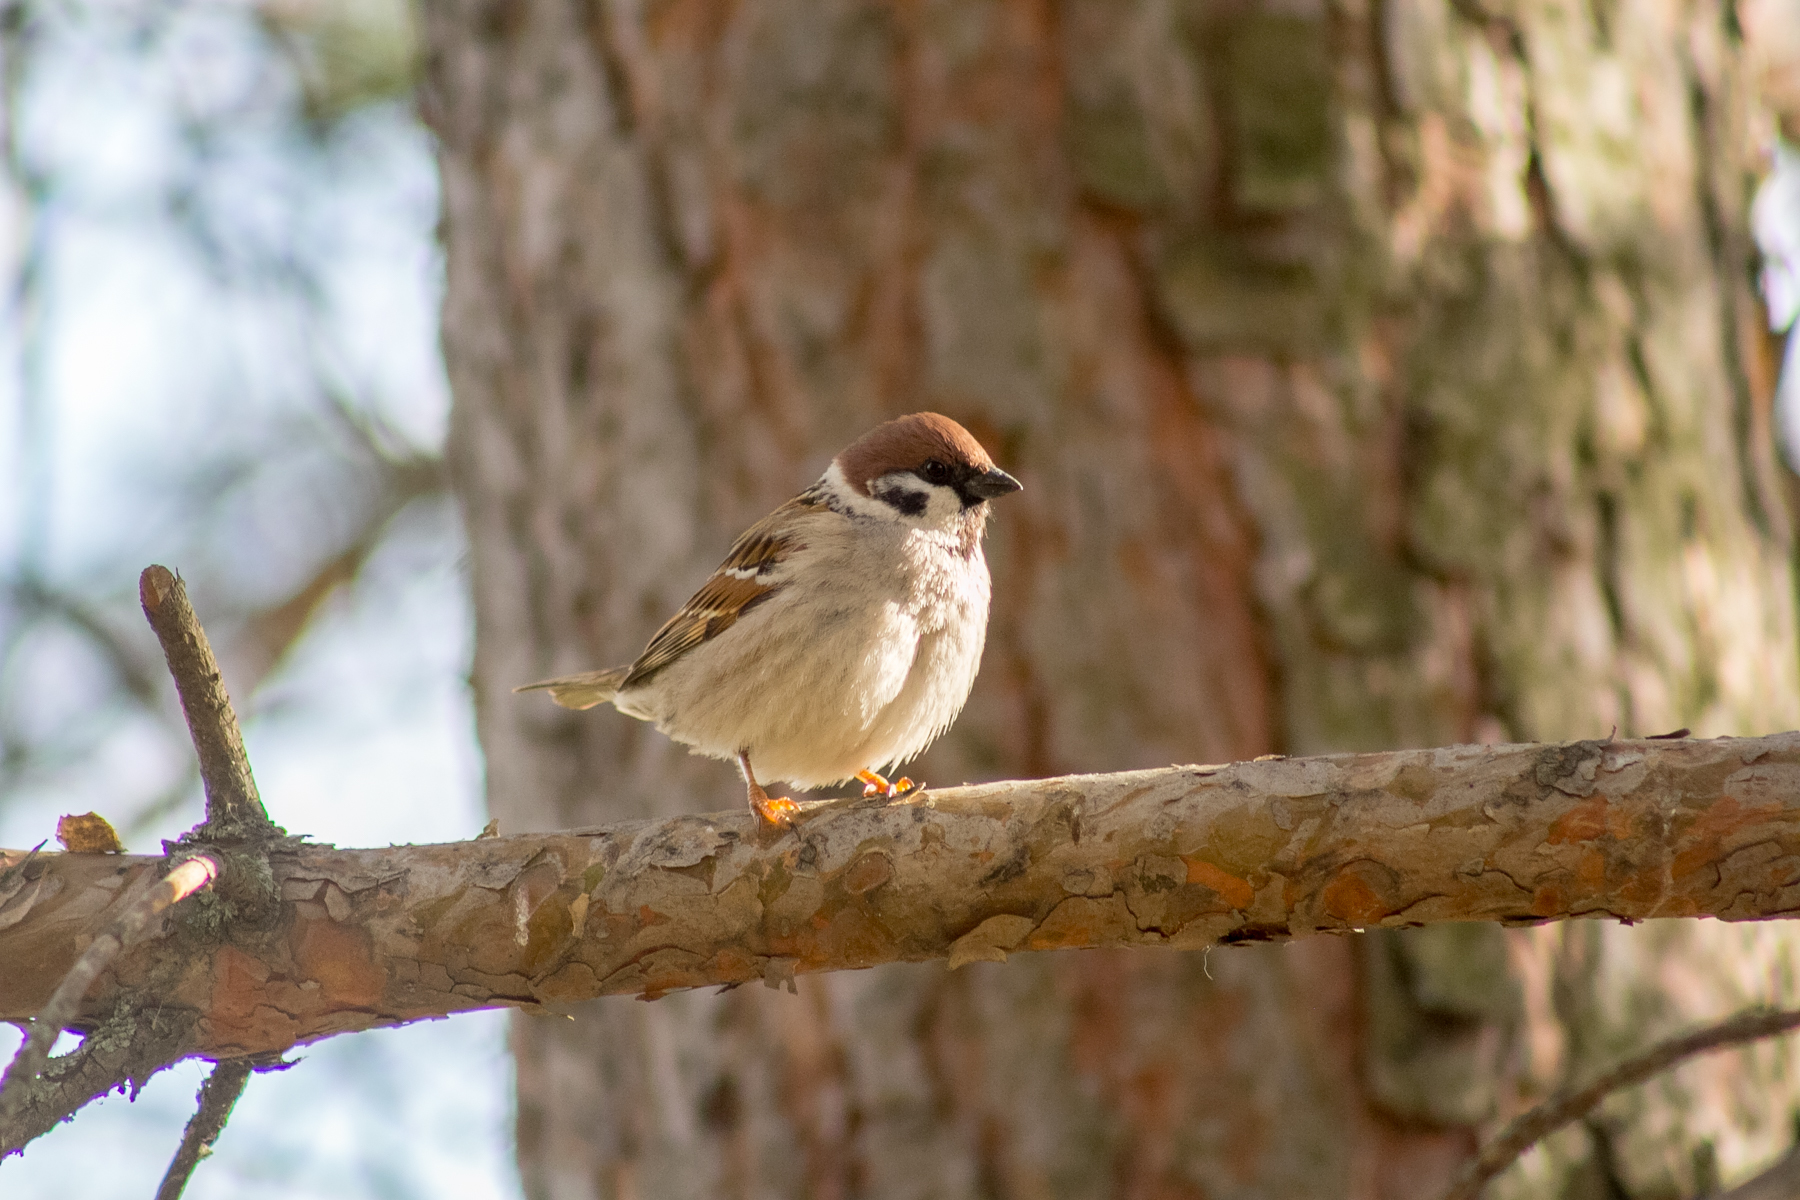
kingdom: Animalia
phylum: Chordata
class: Aves
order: Passeriformes
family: Passeridae
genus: Passer
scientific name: Passer montanus
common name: Eurasian tree sparrow
